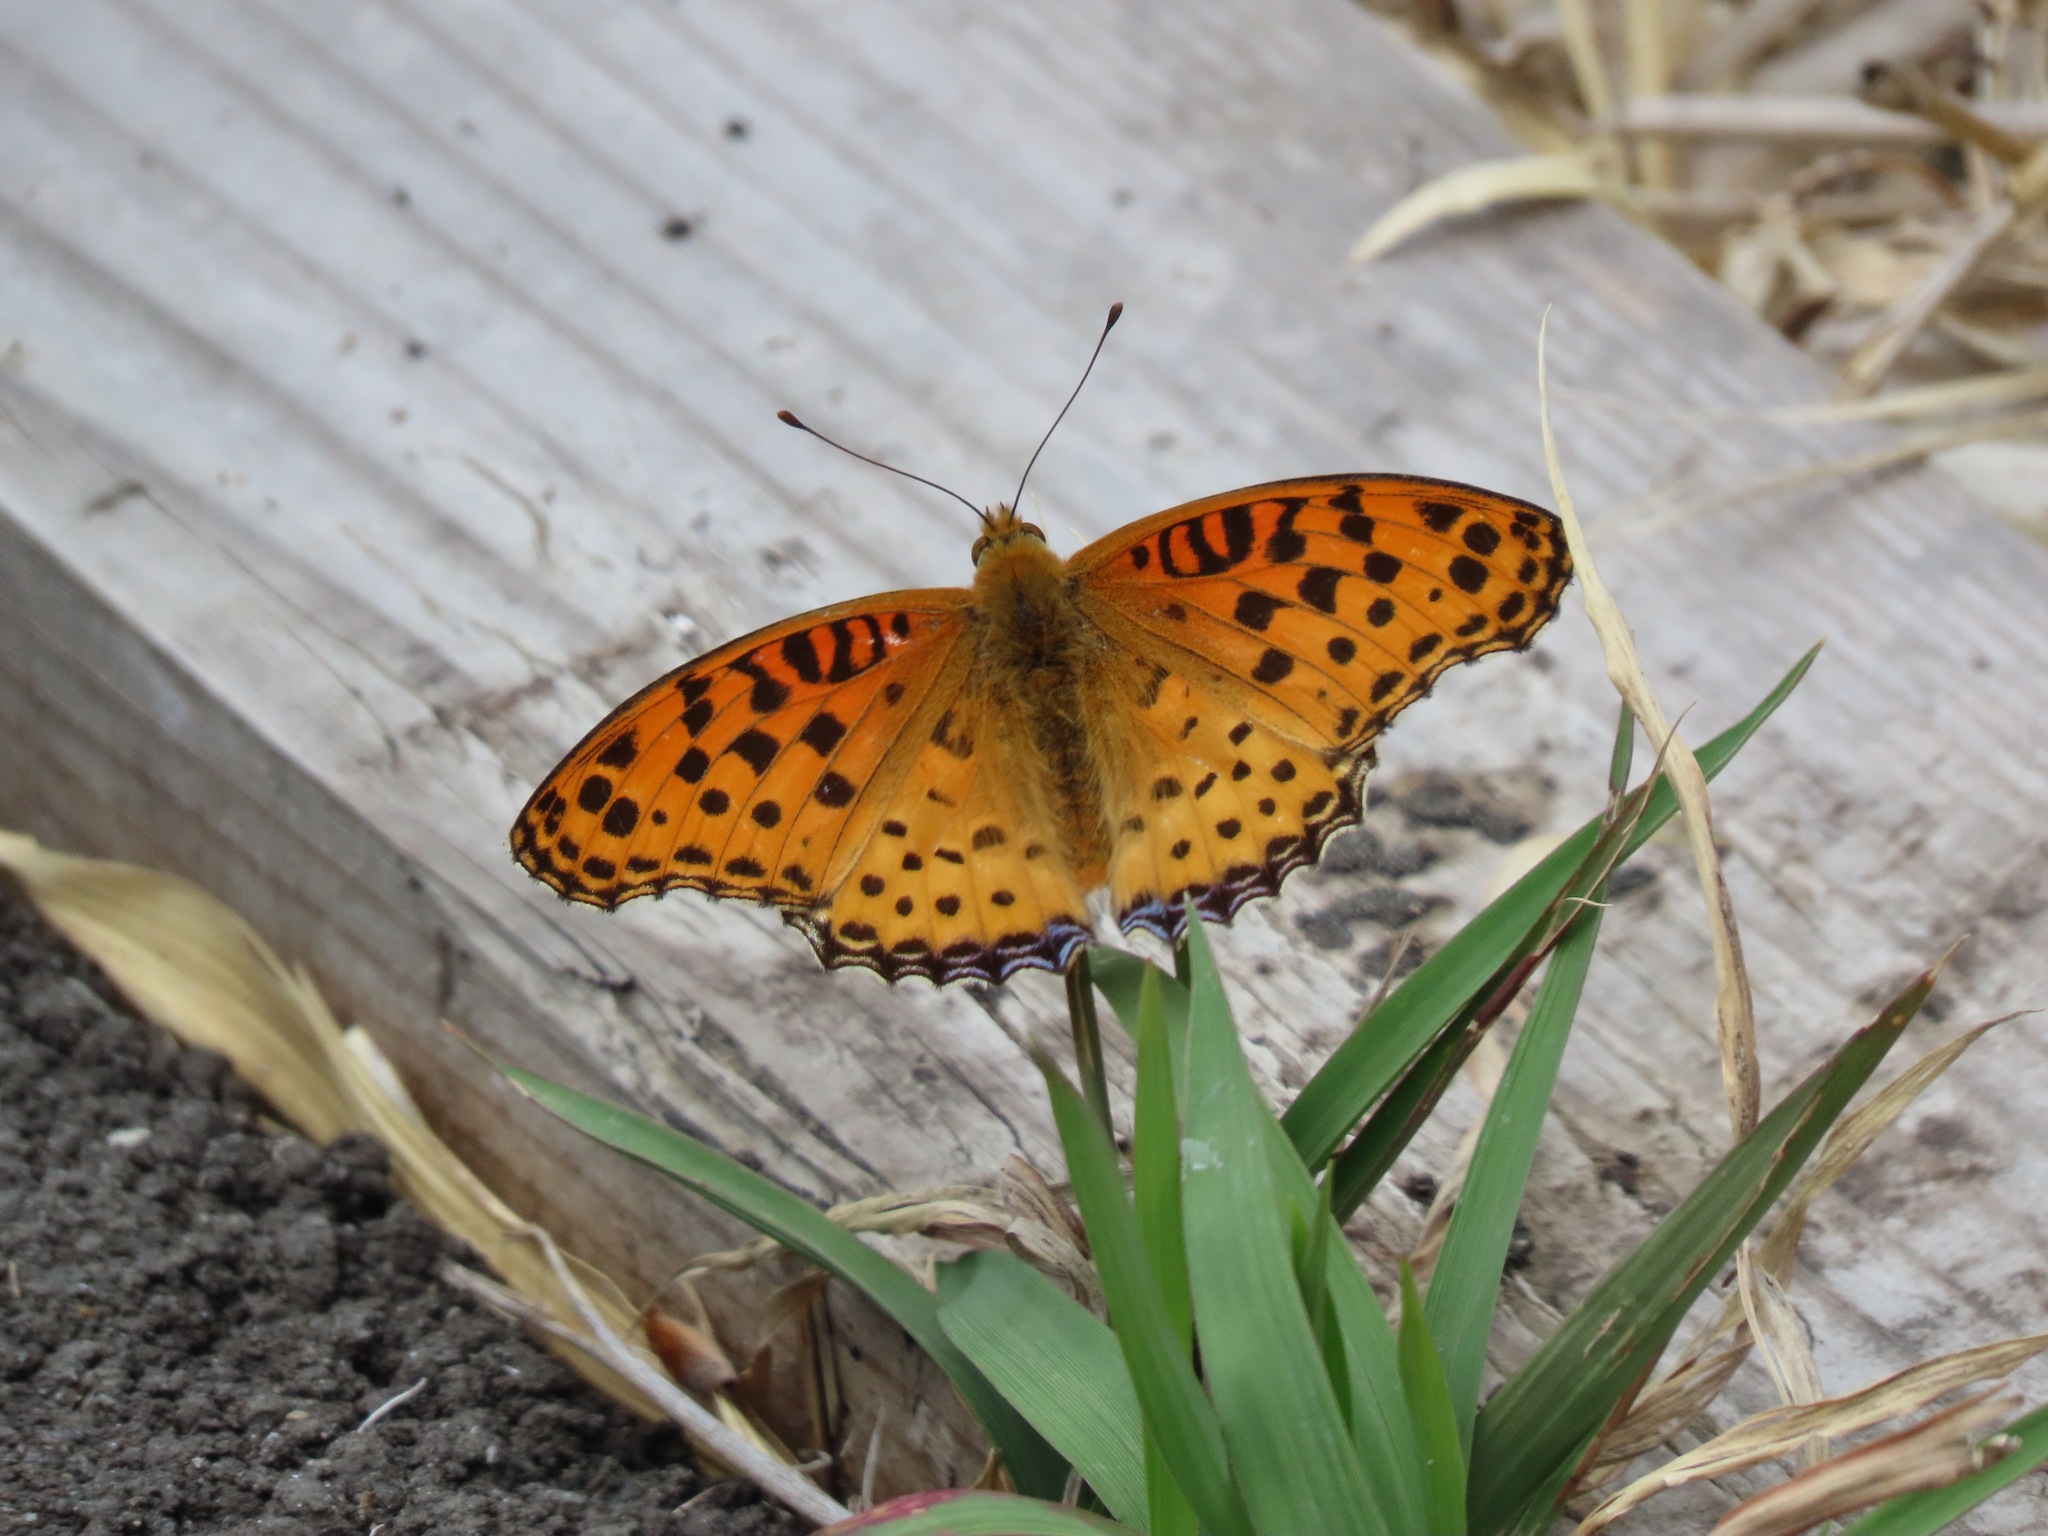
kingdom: Animalia
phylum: Arthropoda
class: Insecta
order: Lepidoptera
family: Nymphalidae
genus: Argynnis
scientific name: Argynnis hyperbius
